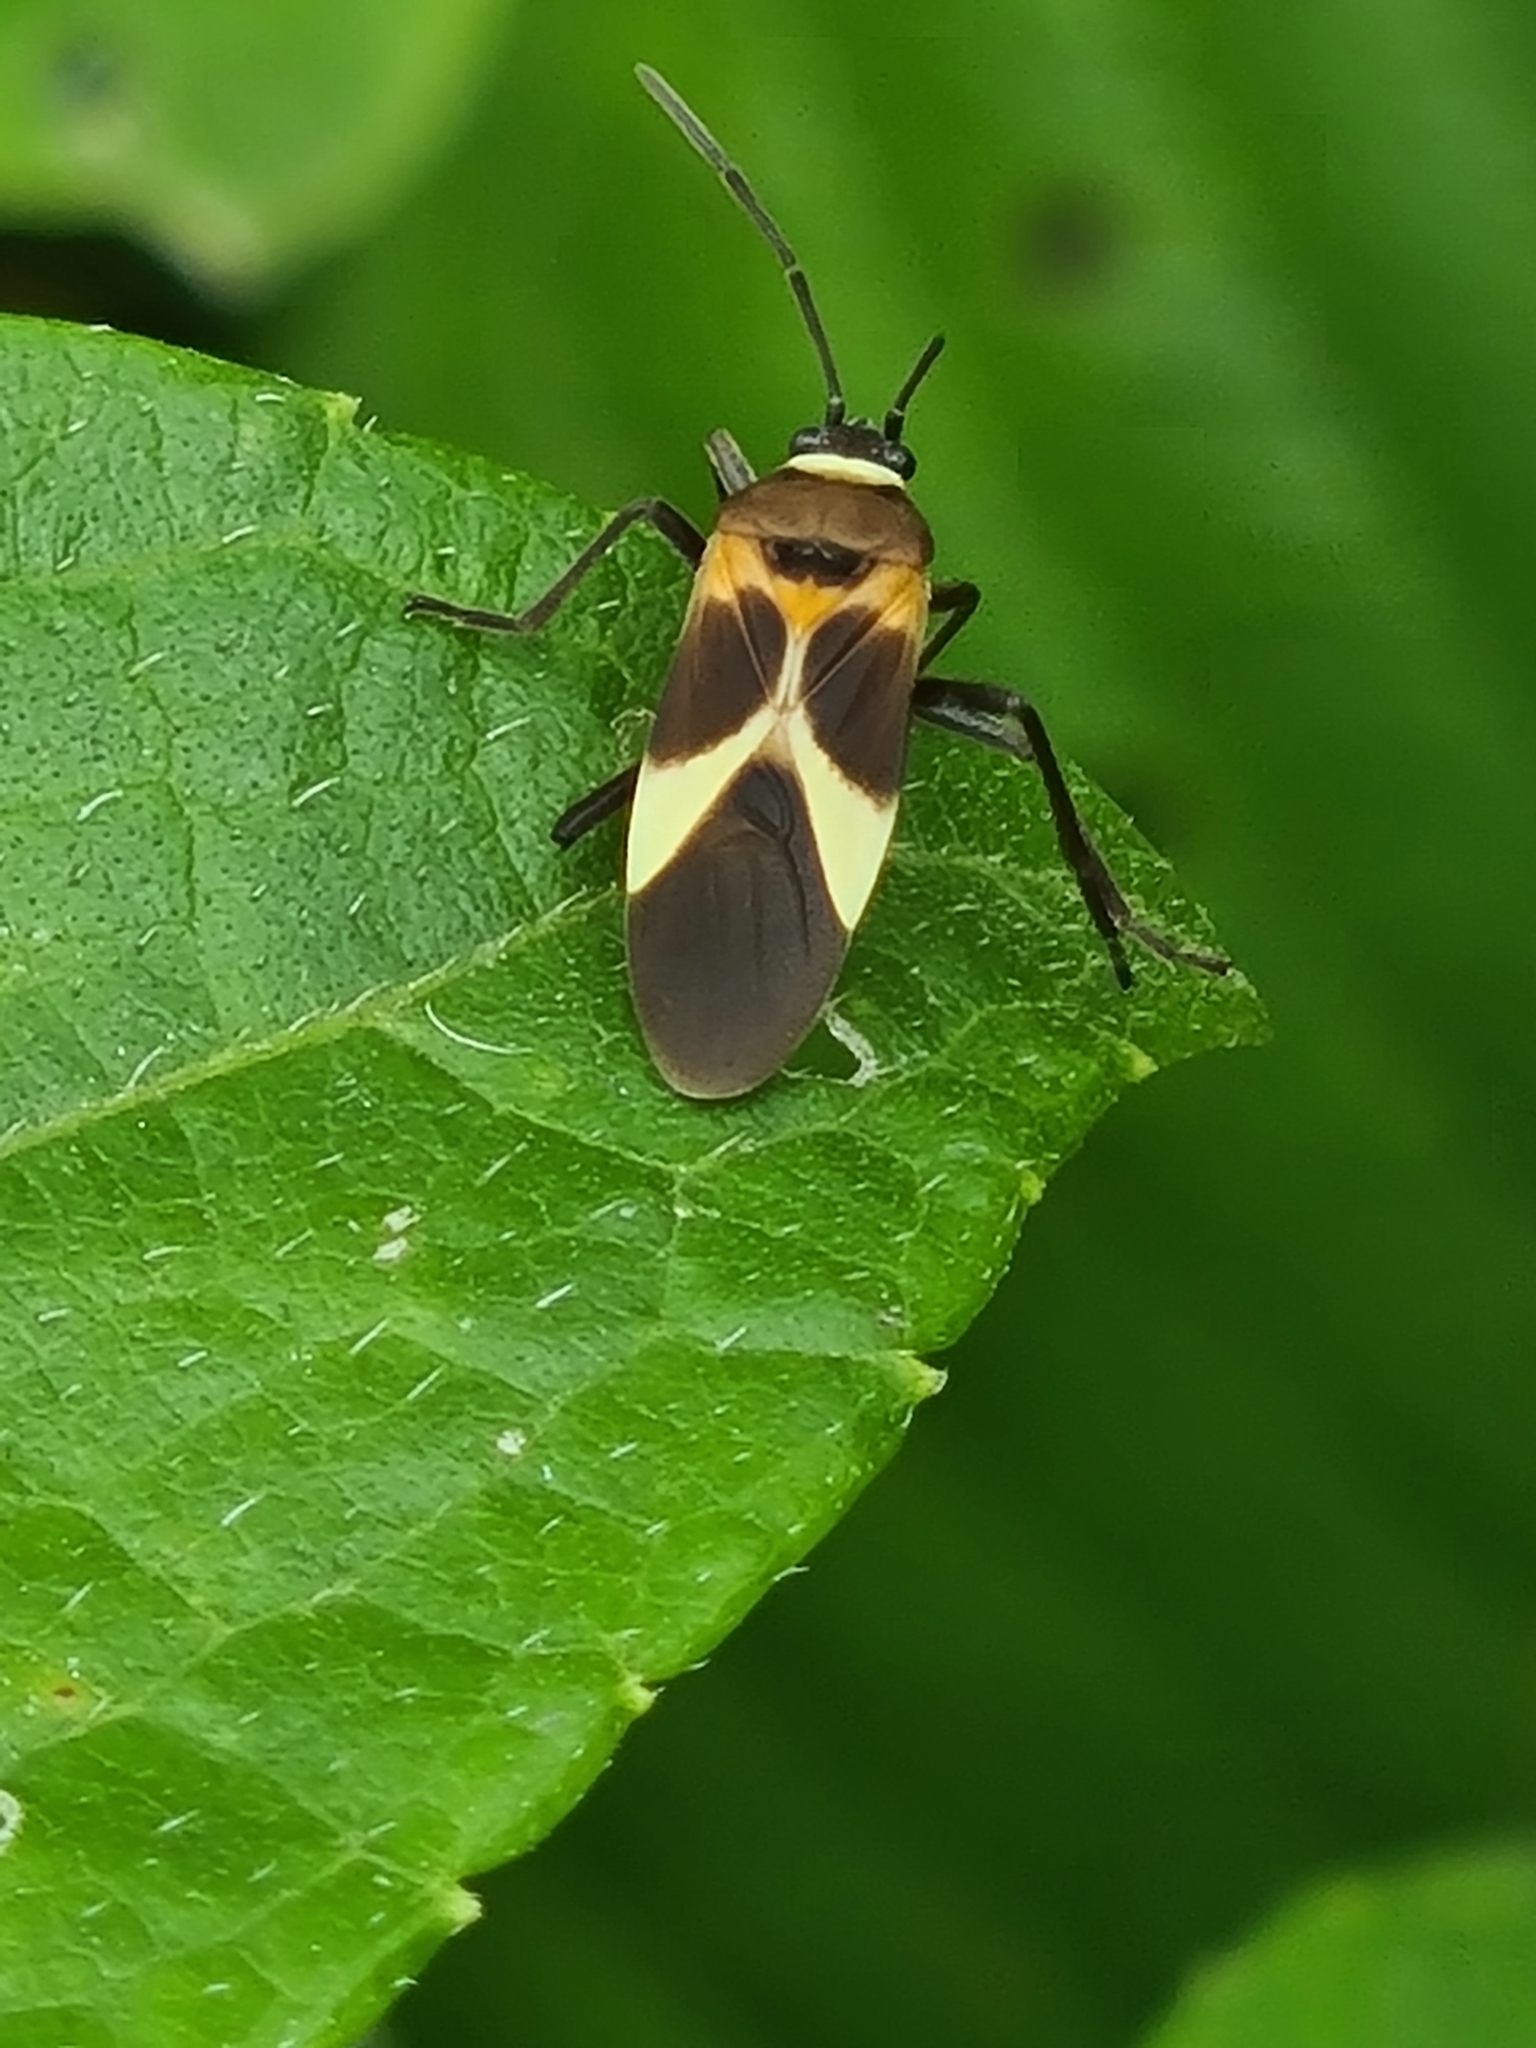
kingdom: Animalia
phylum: Arthropoda
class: Insecta
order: Hemiptera
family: Lygaeidae
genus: Craspeduchus
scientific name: Craspeduchus variegatus
